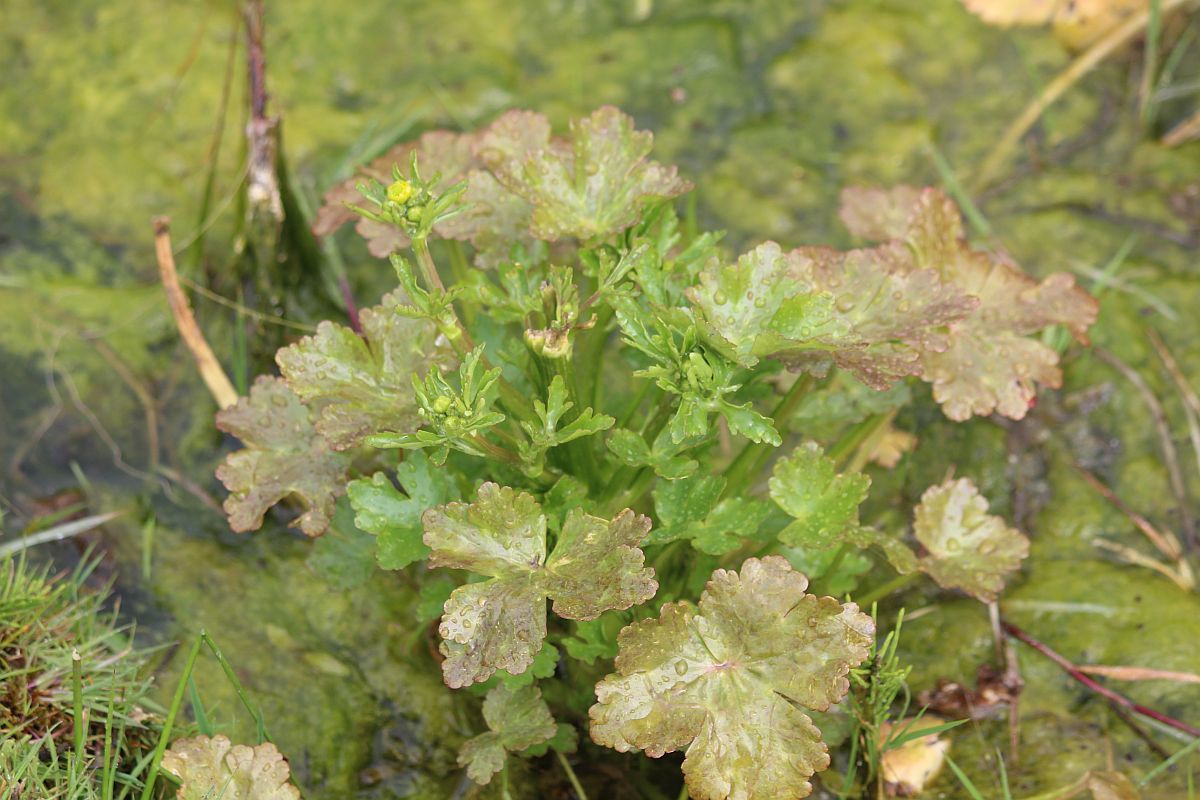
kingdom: Plantae
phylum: Tracheophyta
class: Magnoliopsida
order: Ranunculales
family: Ranunculaceae
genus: Ranunculus
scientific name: Ranunculus sceleratus
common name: Celery-leaved buttercup
